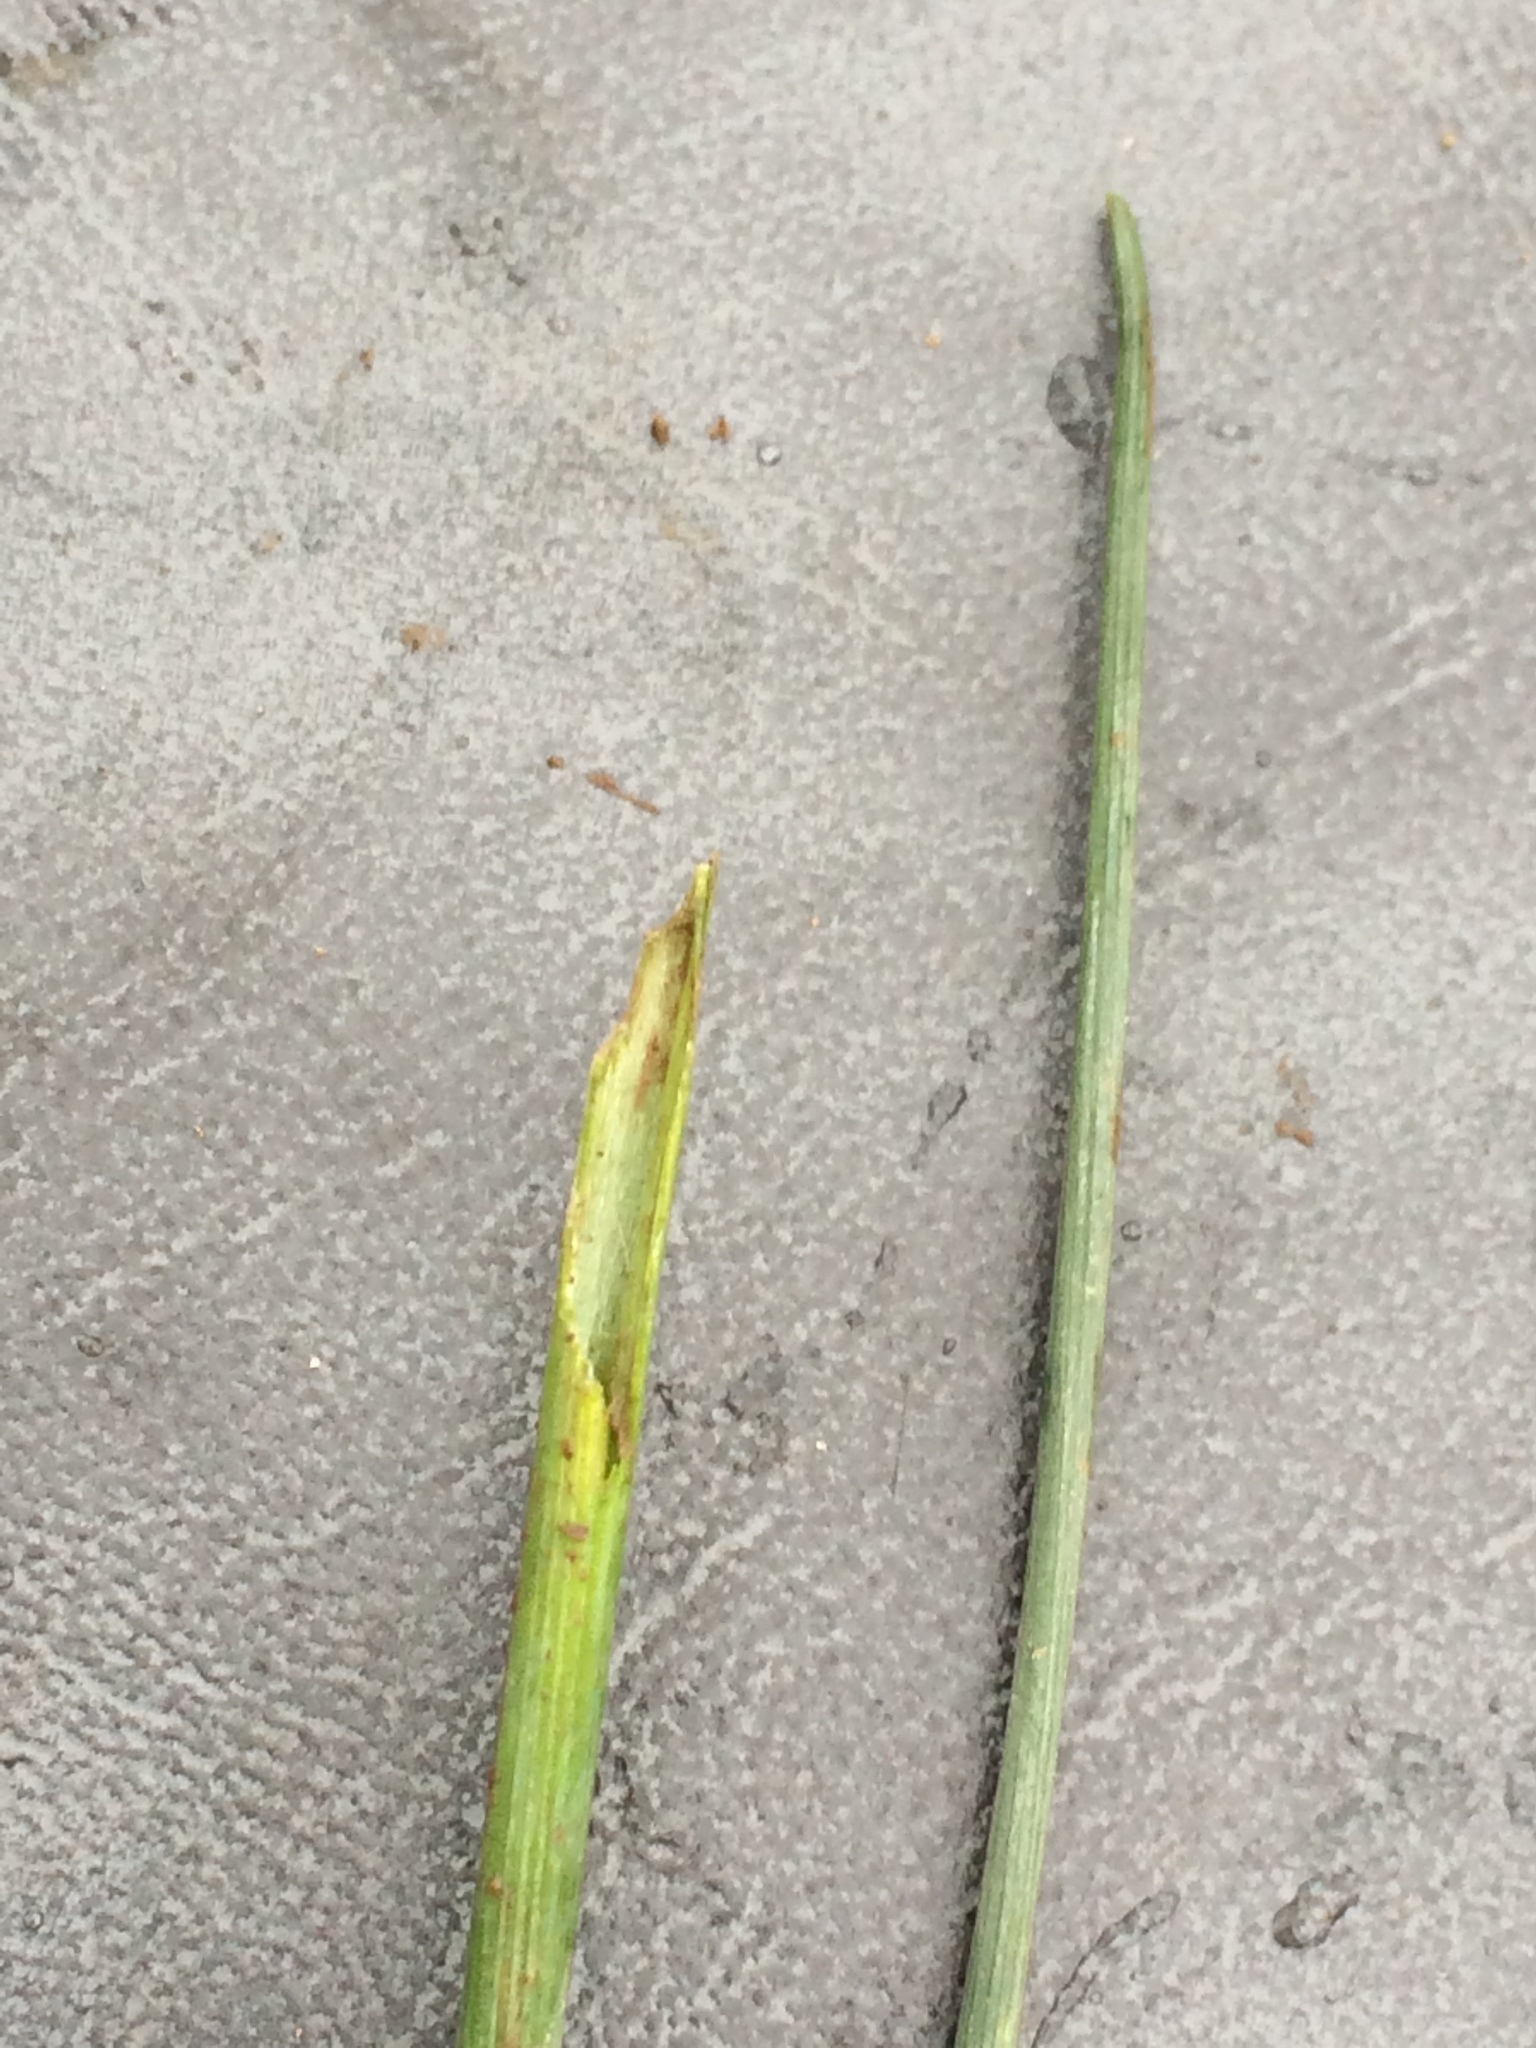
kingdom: Plantae
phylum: Tracheophyta
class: Liliopsida
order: Asparagales
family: Amaryllidaceae
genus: Allium
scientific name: Allium vineale
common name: Crow garlic
